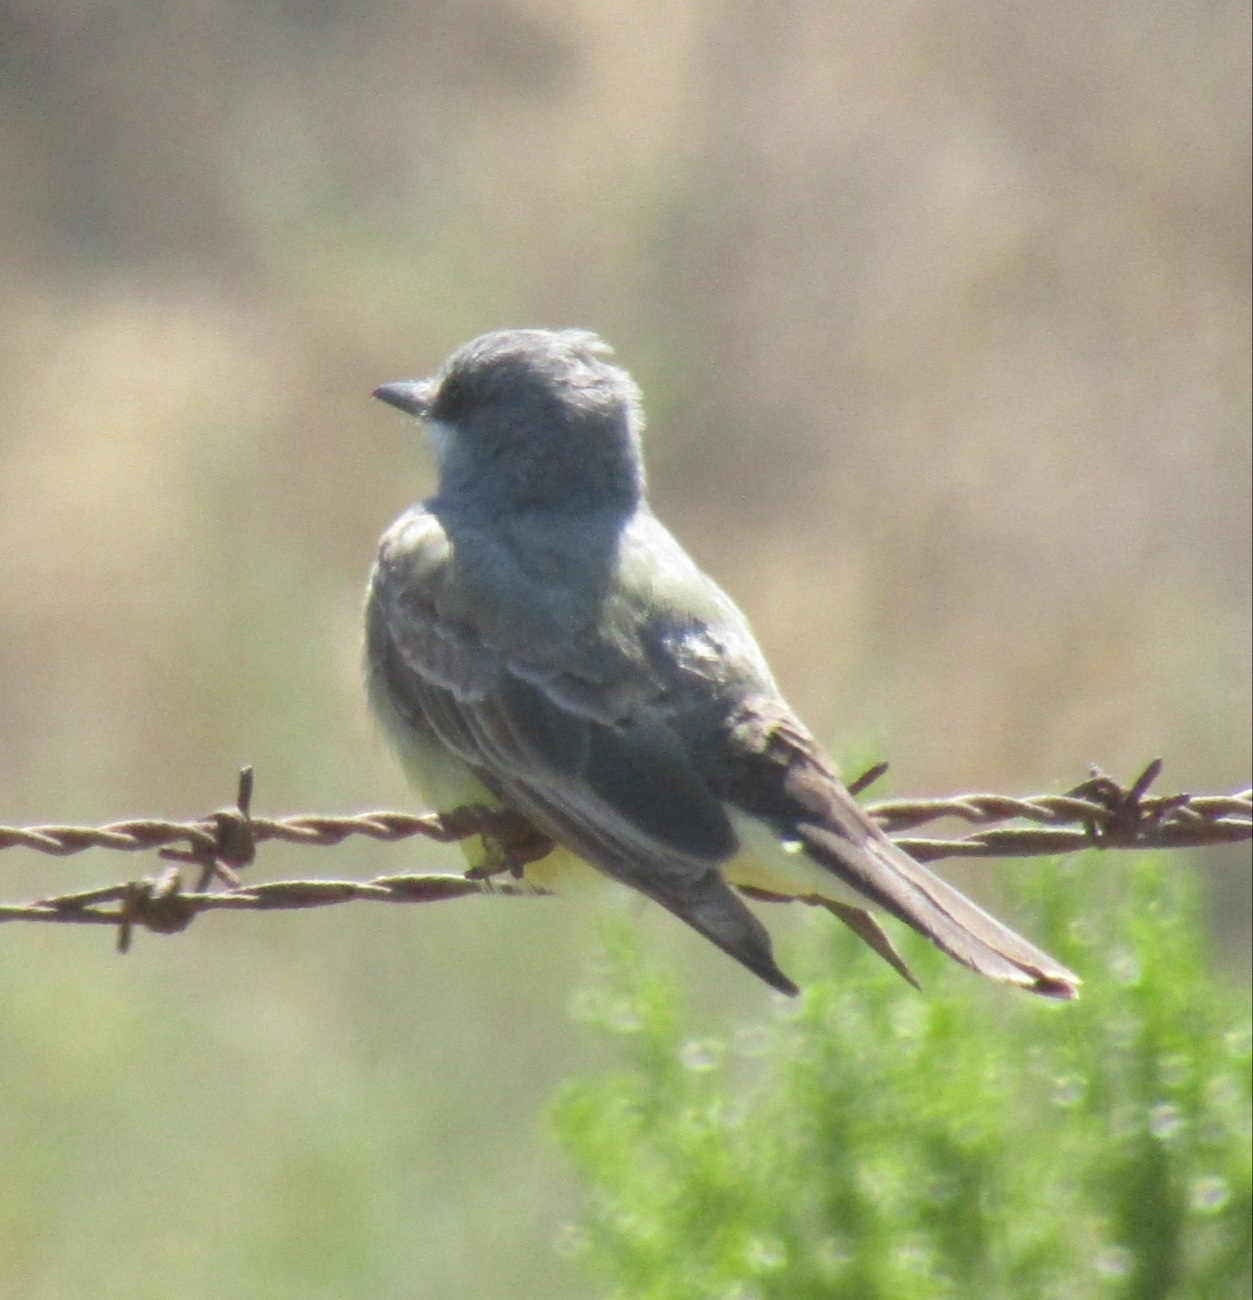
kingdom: Animalia
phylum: Chordata
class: Aves
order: Passeriformes
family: Tyrannidae
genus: Tyrannus
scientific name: Tyrannus vociferans
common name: Cassin's kingbird
